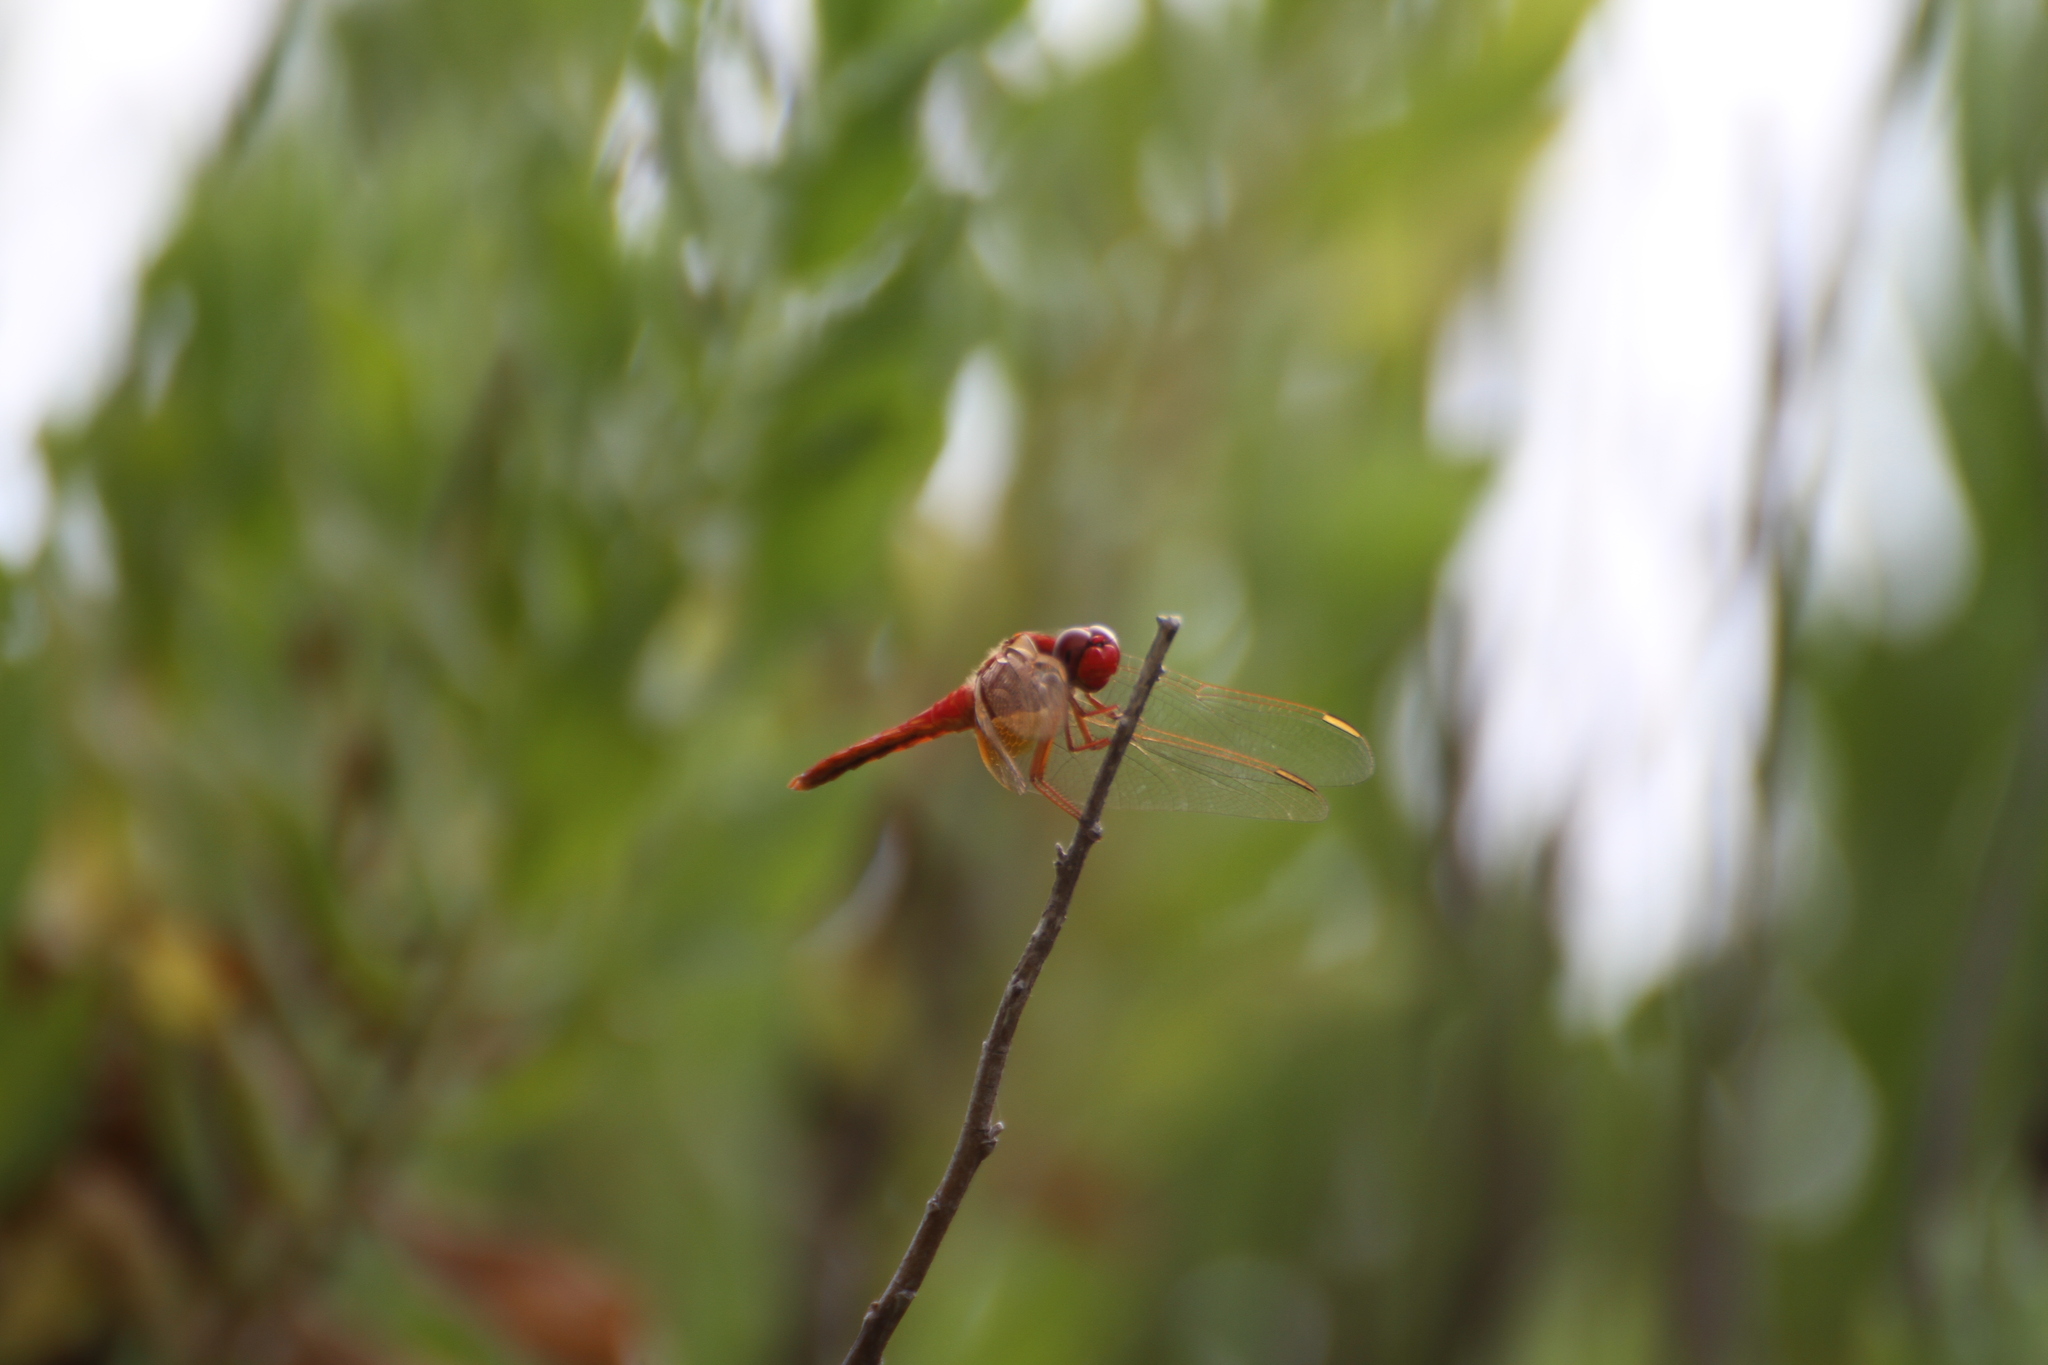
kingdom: Animalia
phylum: Arthropoda
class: Insecta
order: Odonata
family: Libellulidae
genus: Crocothemis
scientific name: Crocothemis erythraea
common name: Scarlet dragonfly
